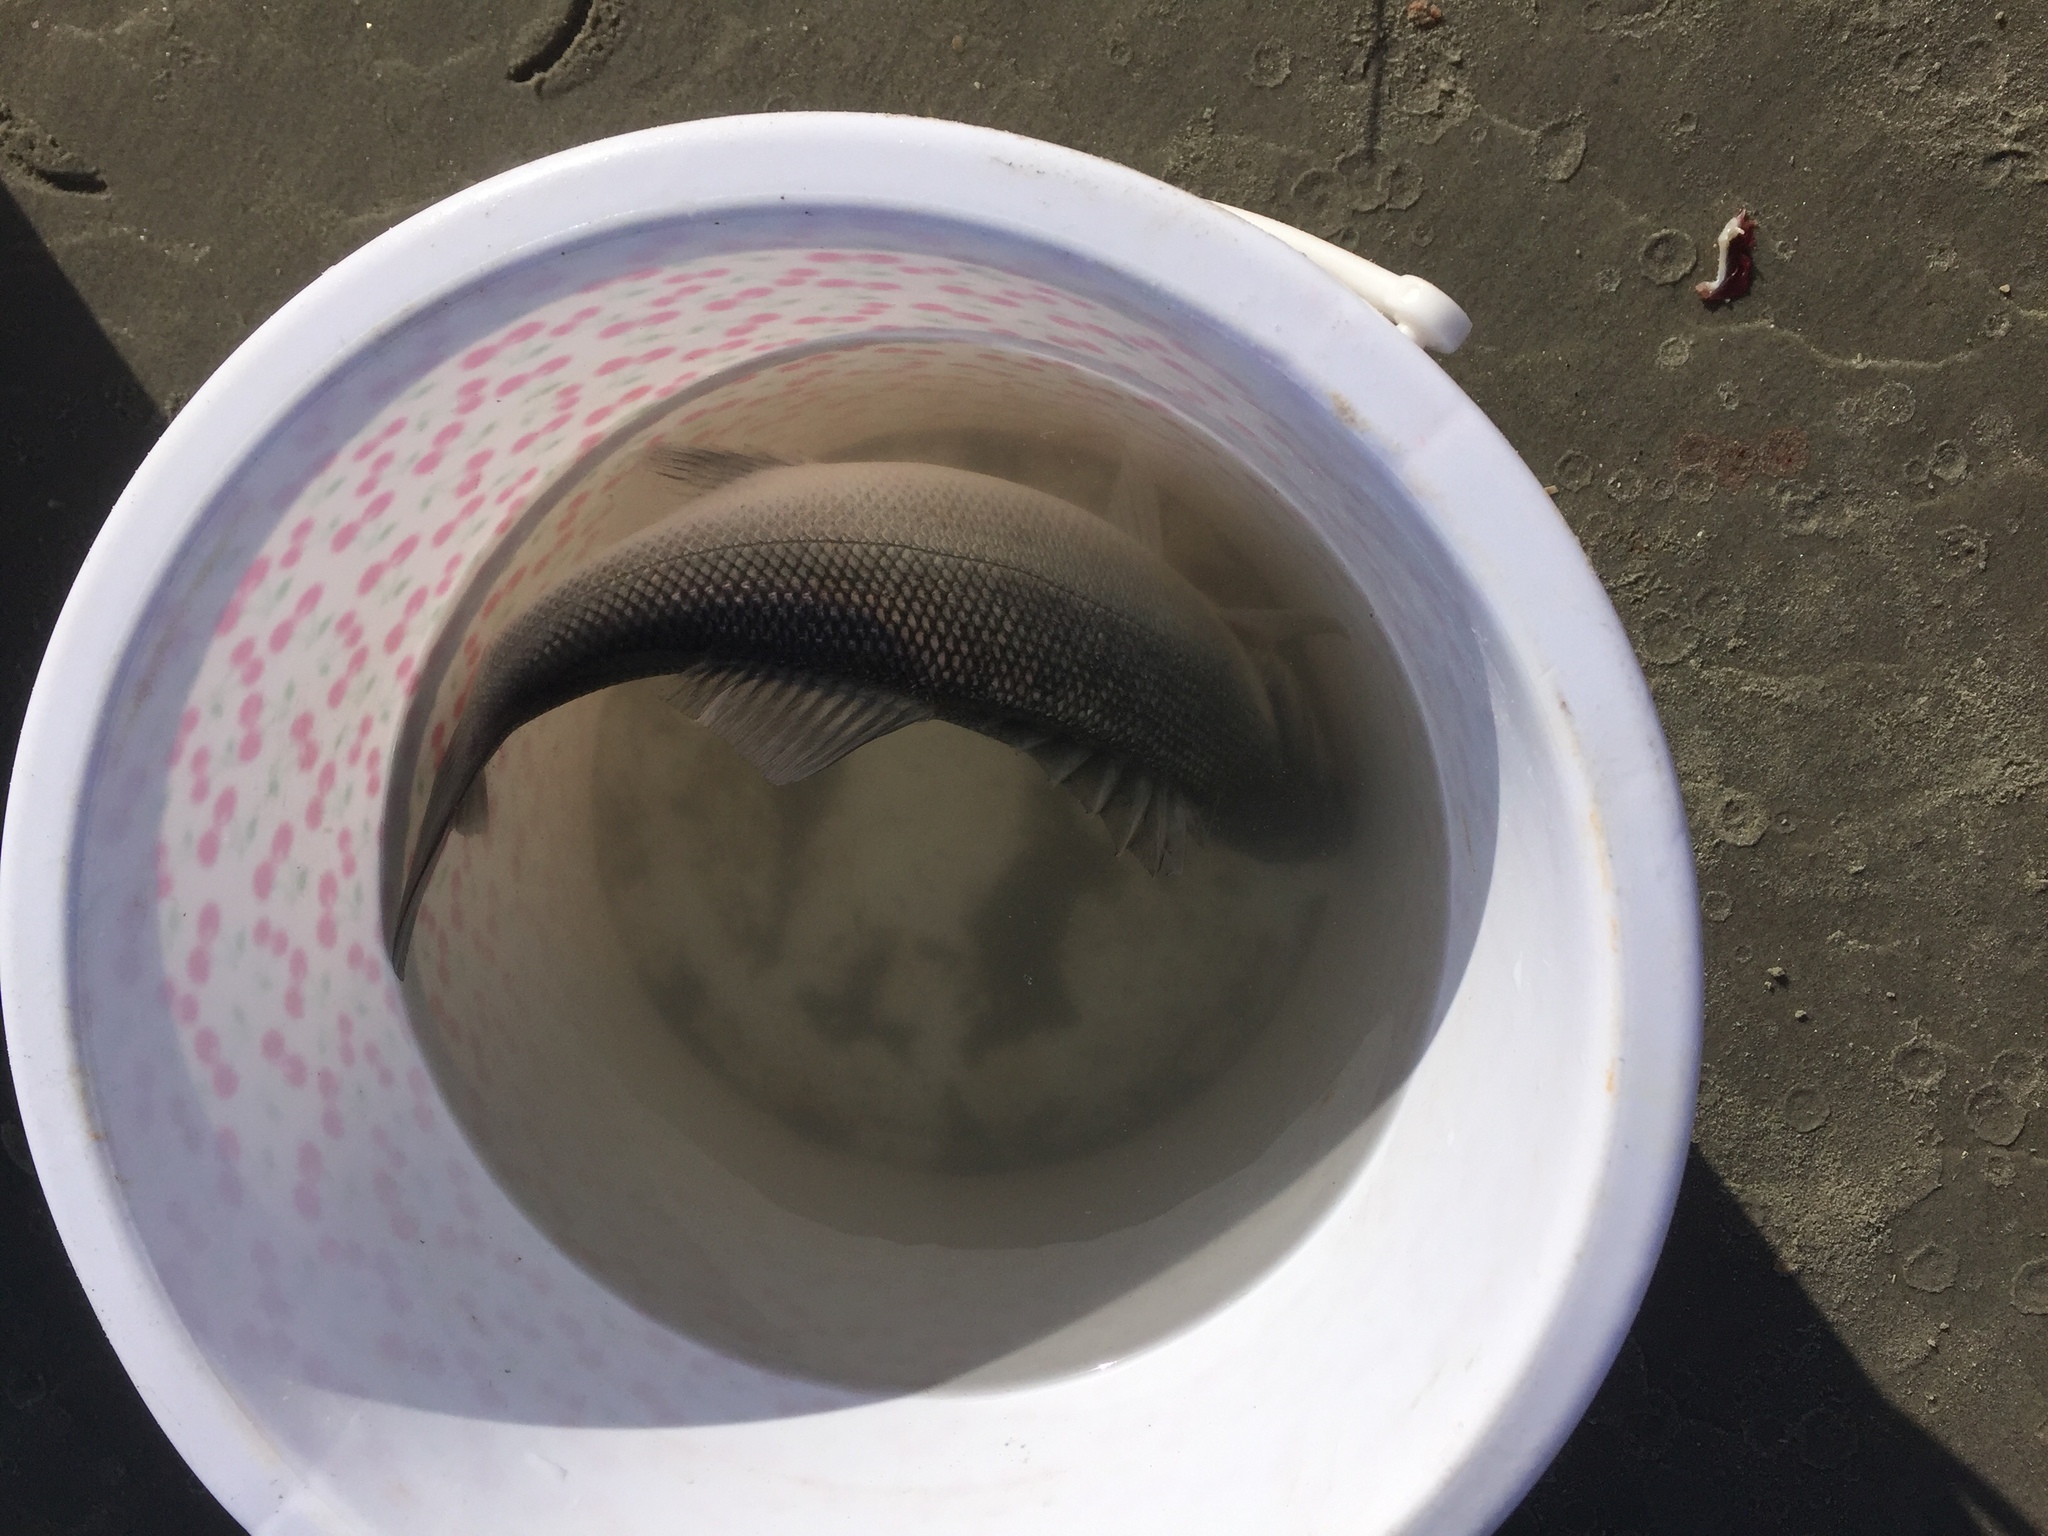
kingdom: Animalia
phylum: Chordata
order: Perciformes
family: Moronidae
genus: Dicentrarchus
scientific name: Dicentrarchus labrax
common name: European seabass
